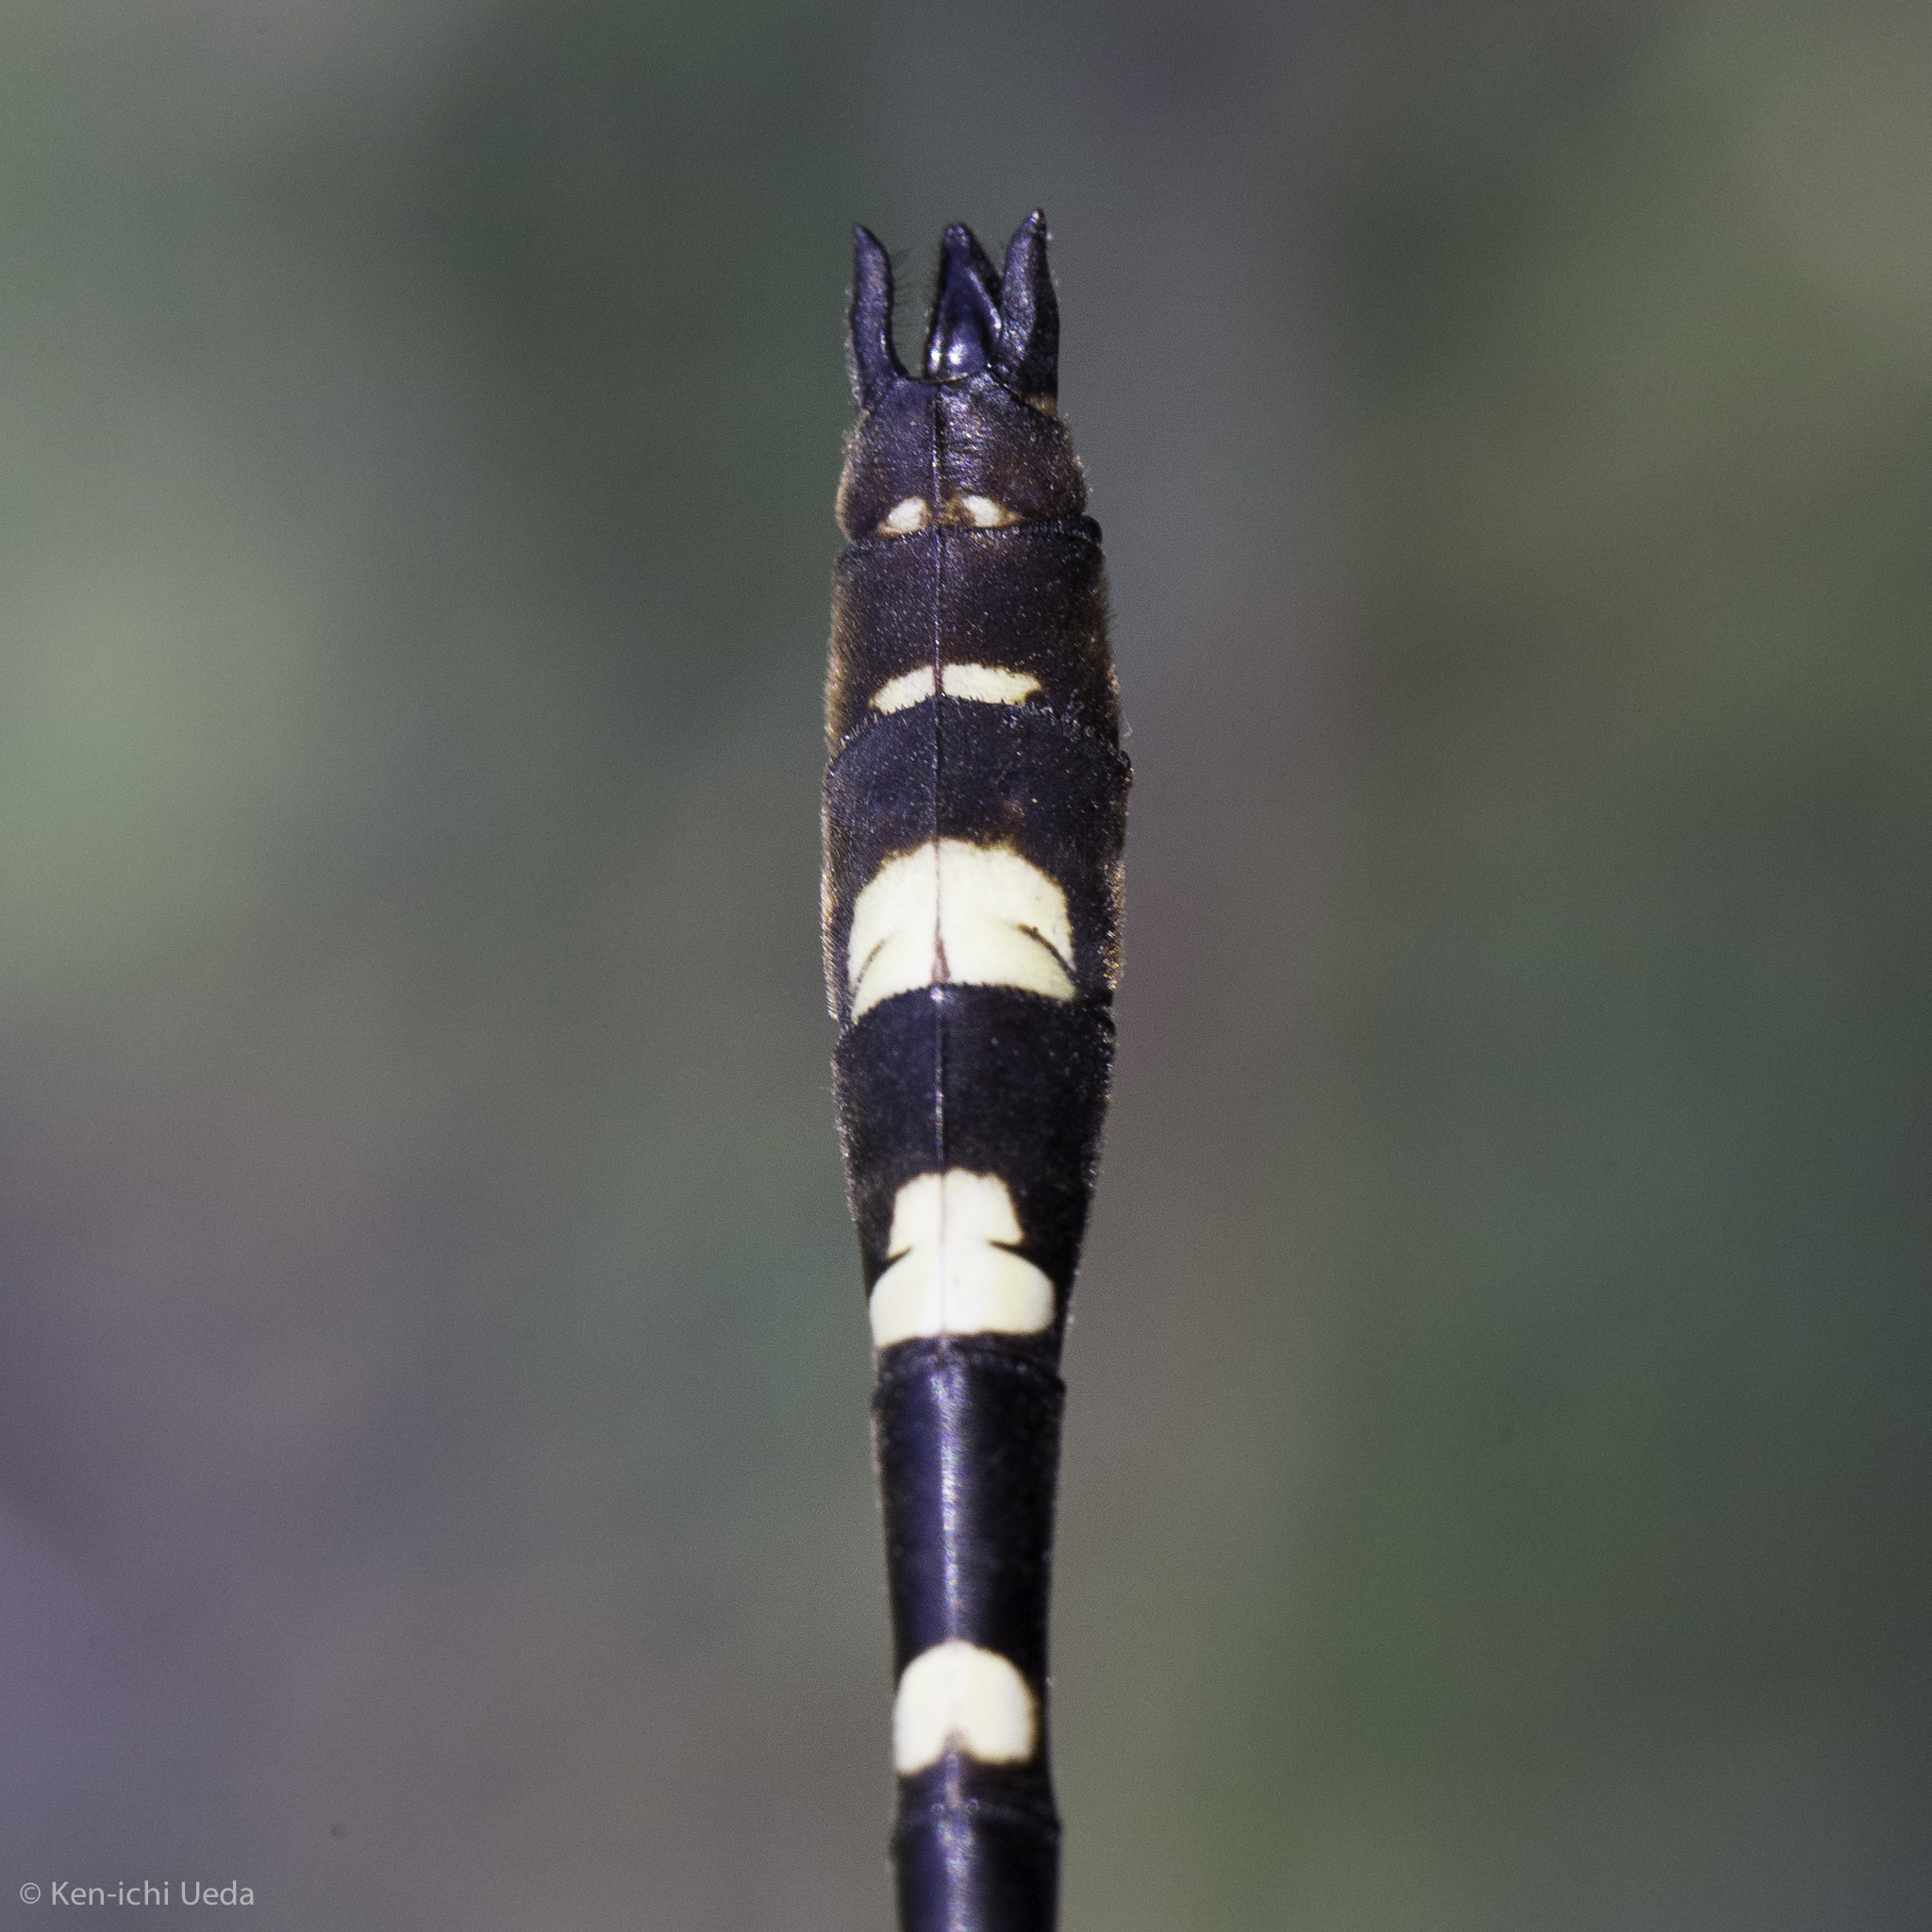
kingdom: Animalia
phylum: Arthropoda
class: Insecta
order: Odonata
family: Macromiidae
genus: Macromia
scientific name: Macromia magnifica
